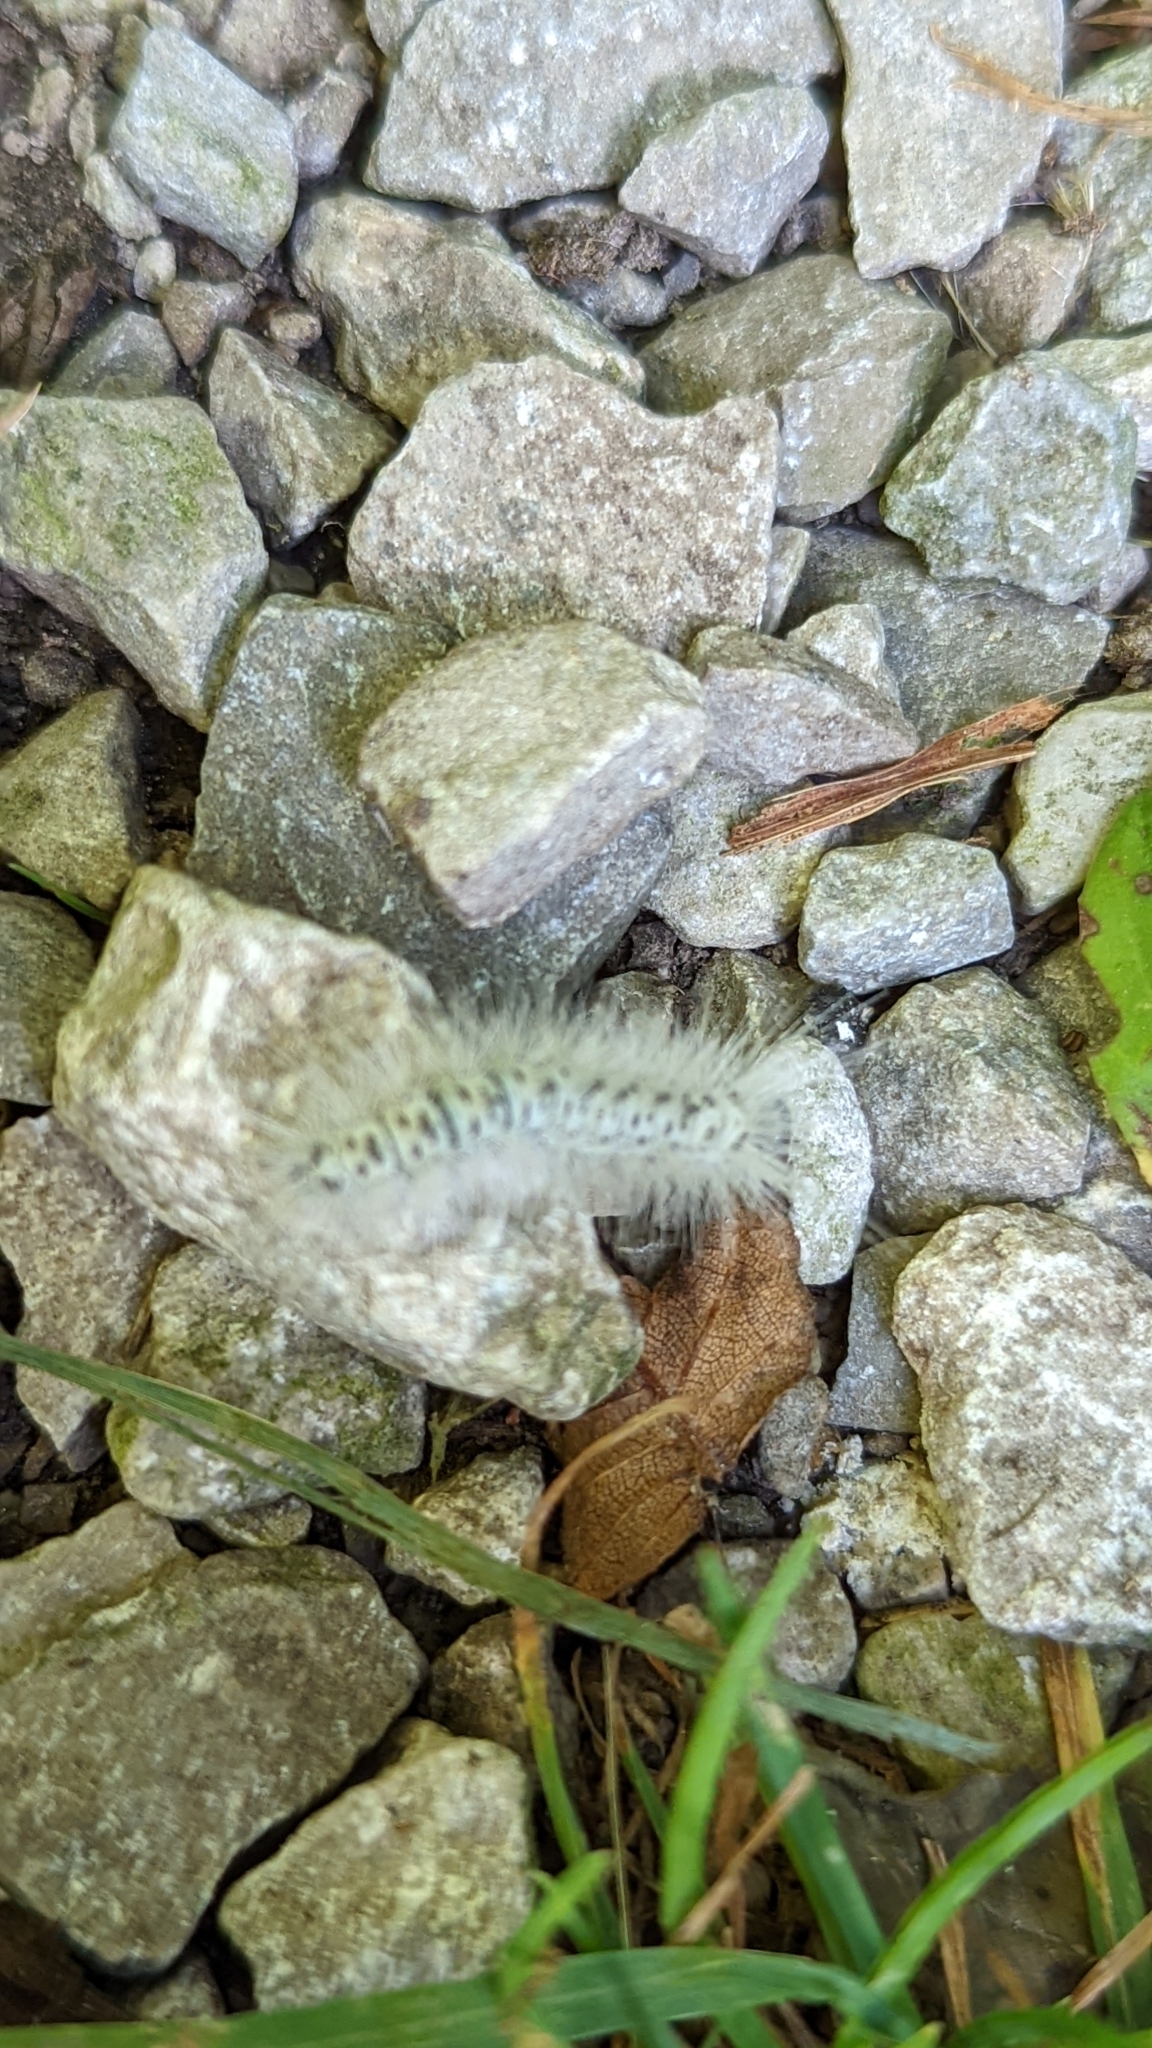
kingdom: Animalia
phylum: Arthropoda
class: Insecta
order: Lepidoptera
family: Erebidae
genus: Lophocampa
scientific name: Lophocampa caryae
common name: Hickory tussock moth
